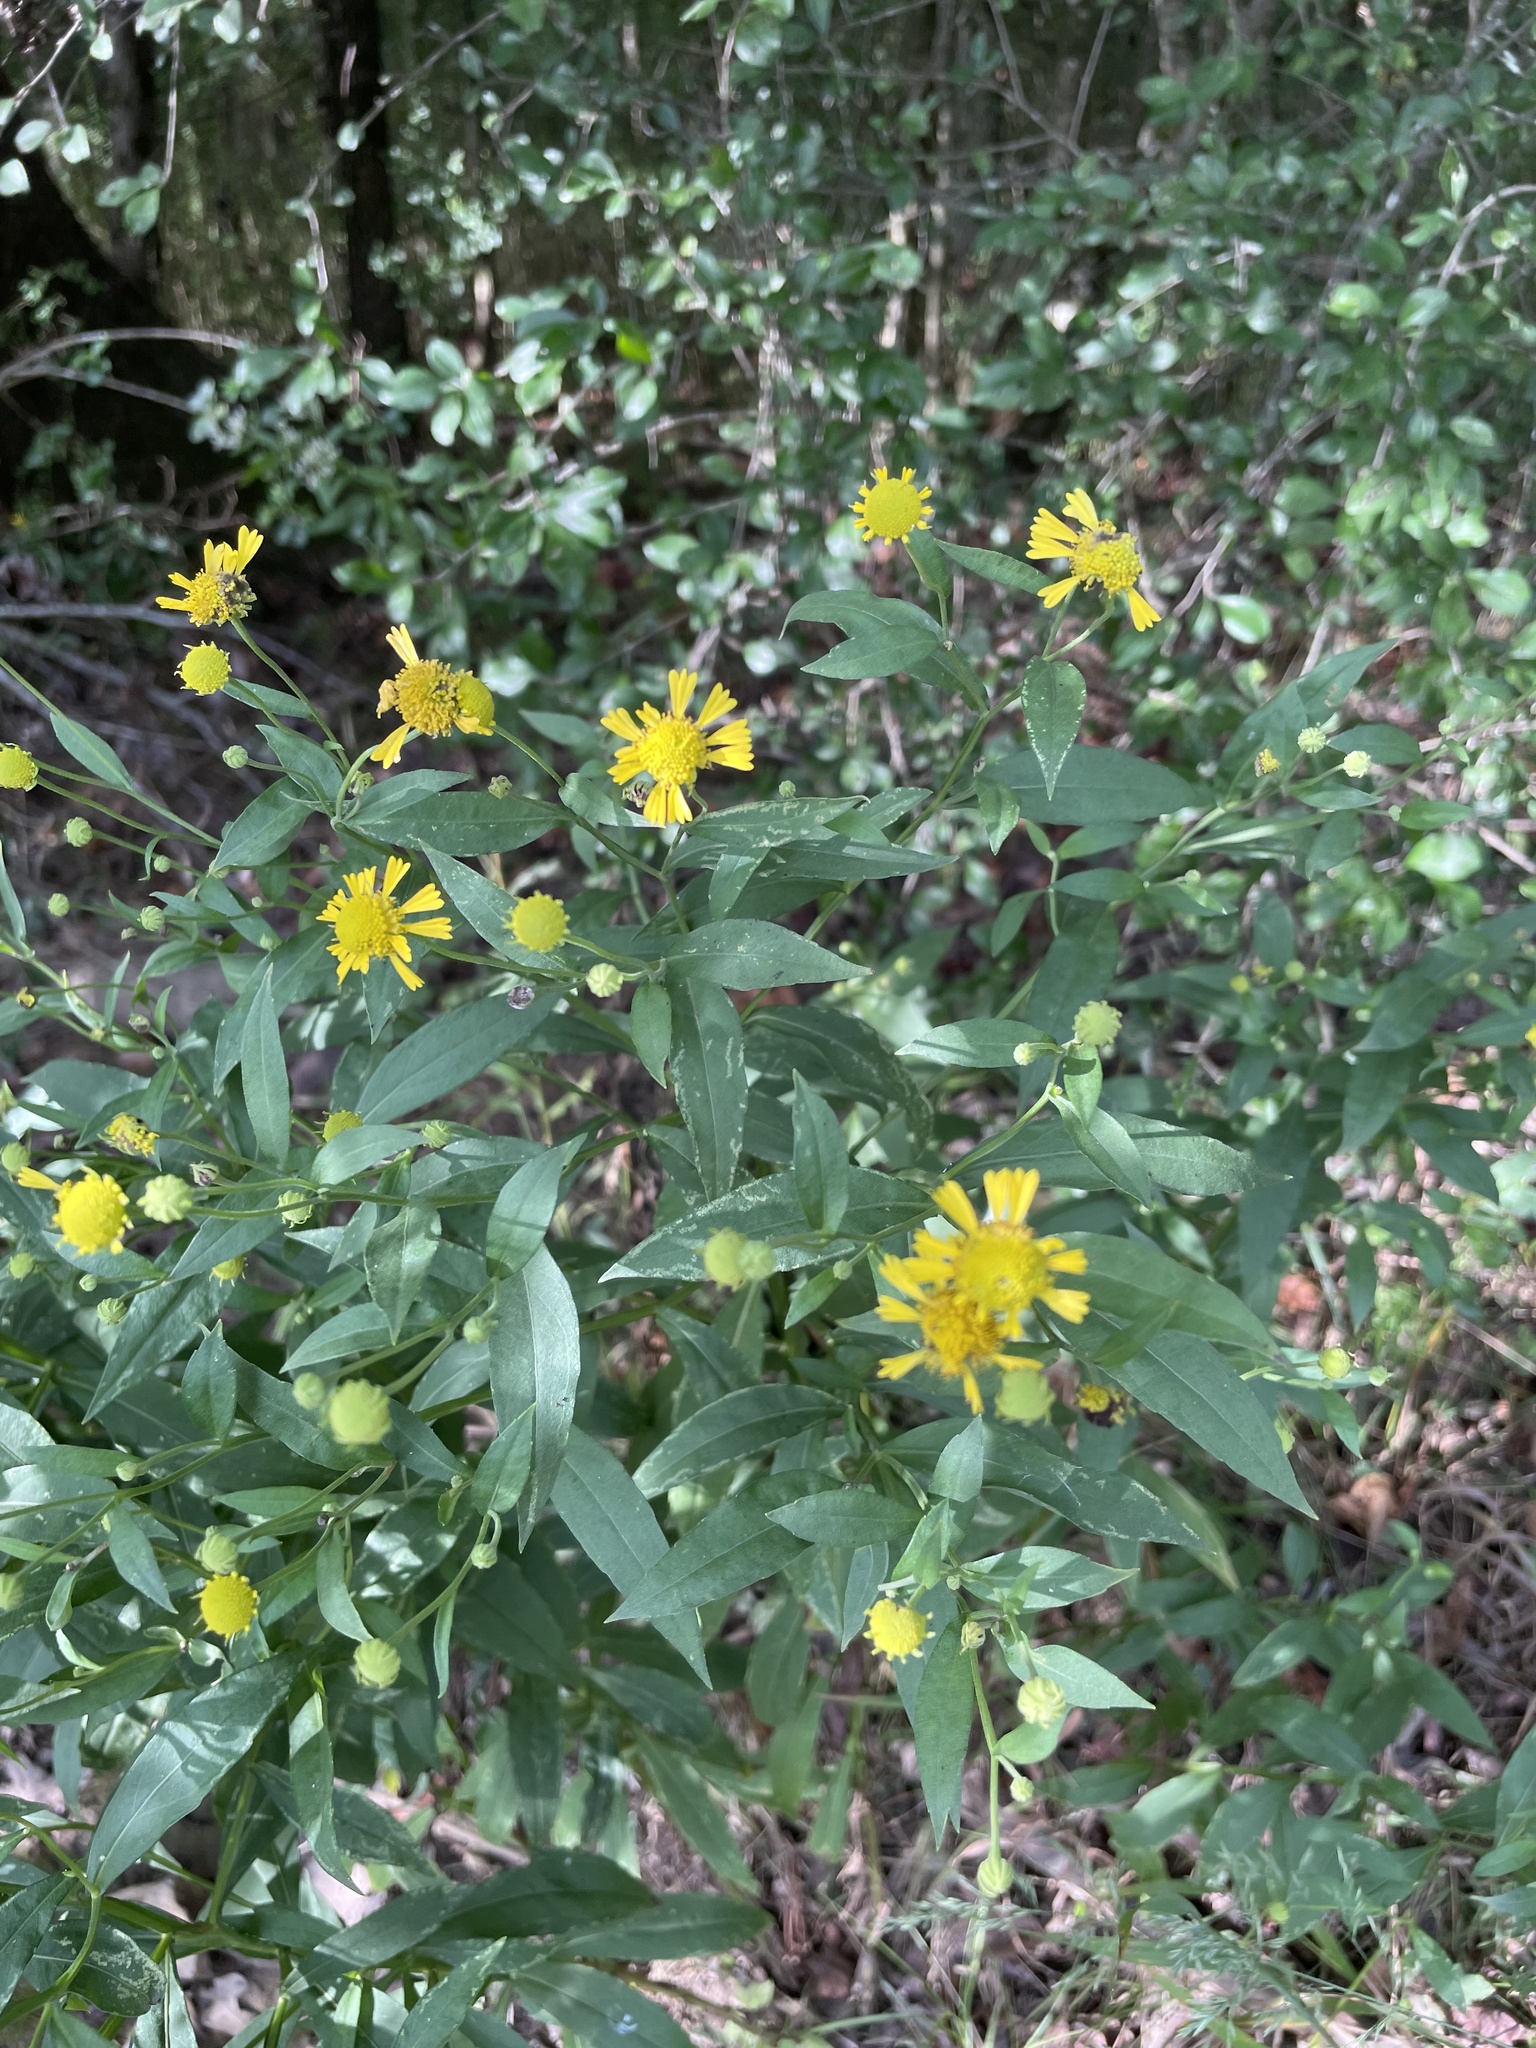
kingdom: Plantae
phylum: Tracheophyta
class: Magnoliopsida
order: Asterales
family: Asteraceae
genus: Helenium
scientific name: Helenium autumnale
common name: Sneezeweed
